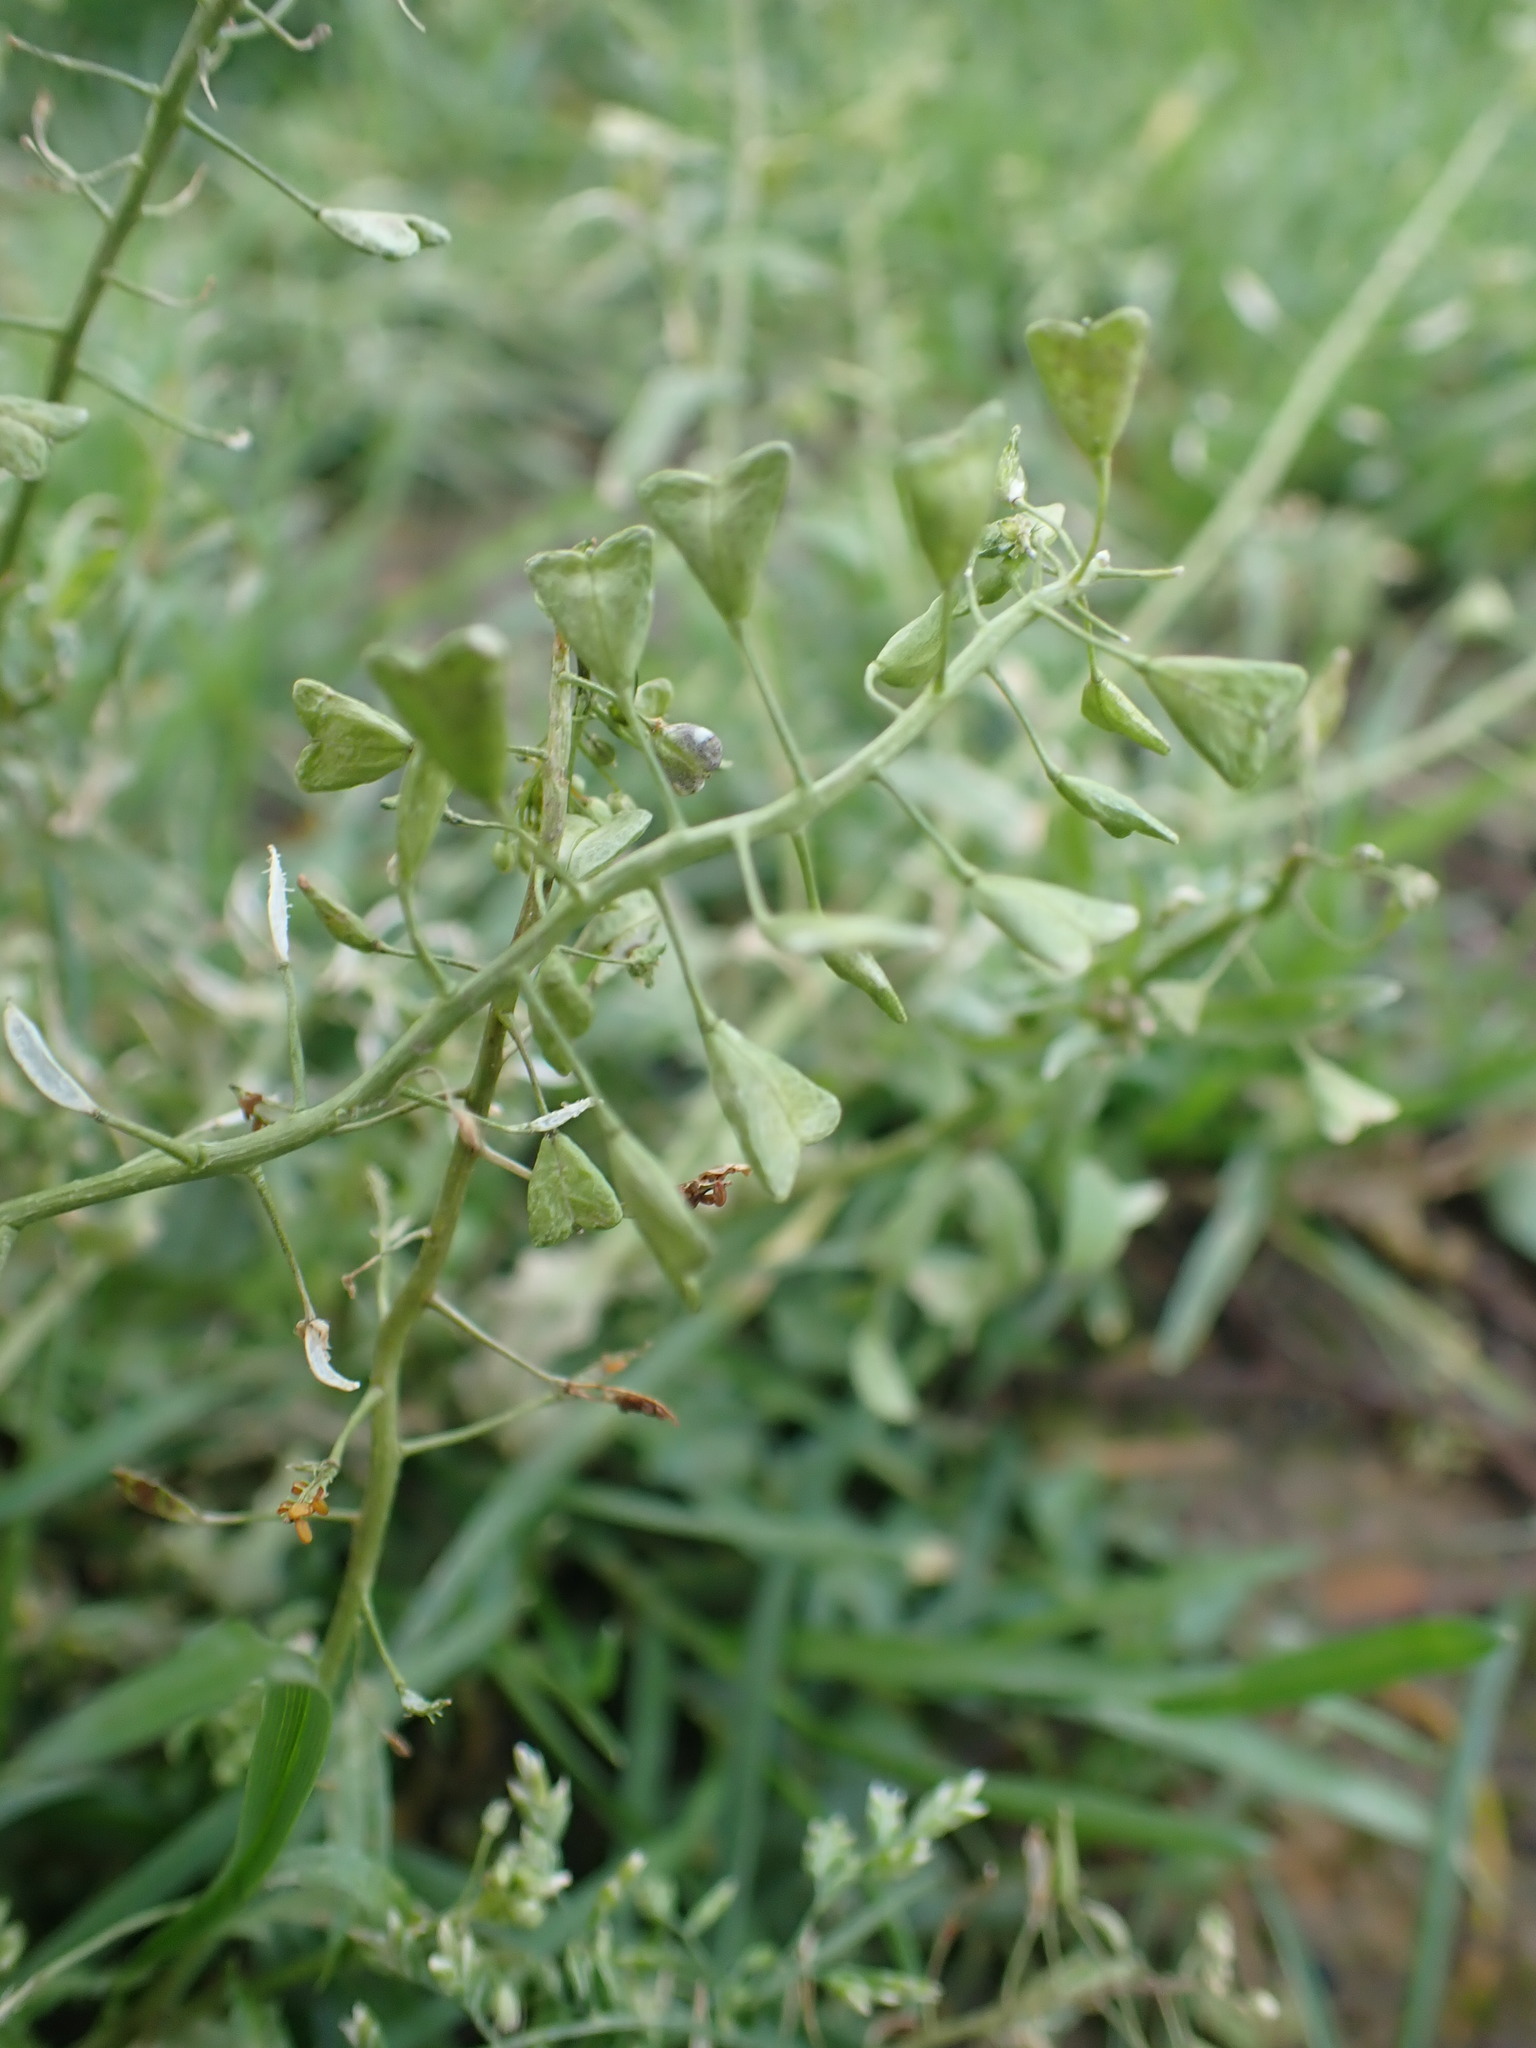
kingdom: Plantae
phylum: Tracheophyta
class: Magnoliopsida
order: Brassicales
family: Brassicaceae
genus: Capsella
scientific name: Capsella bursa-pastoris
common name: Shepherd's purse
